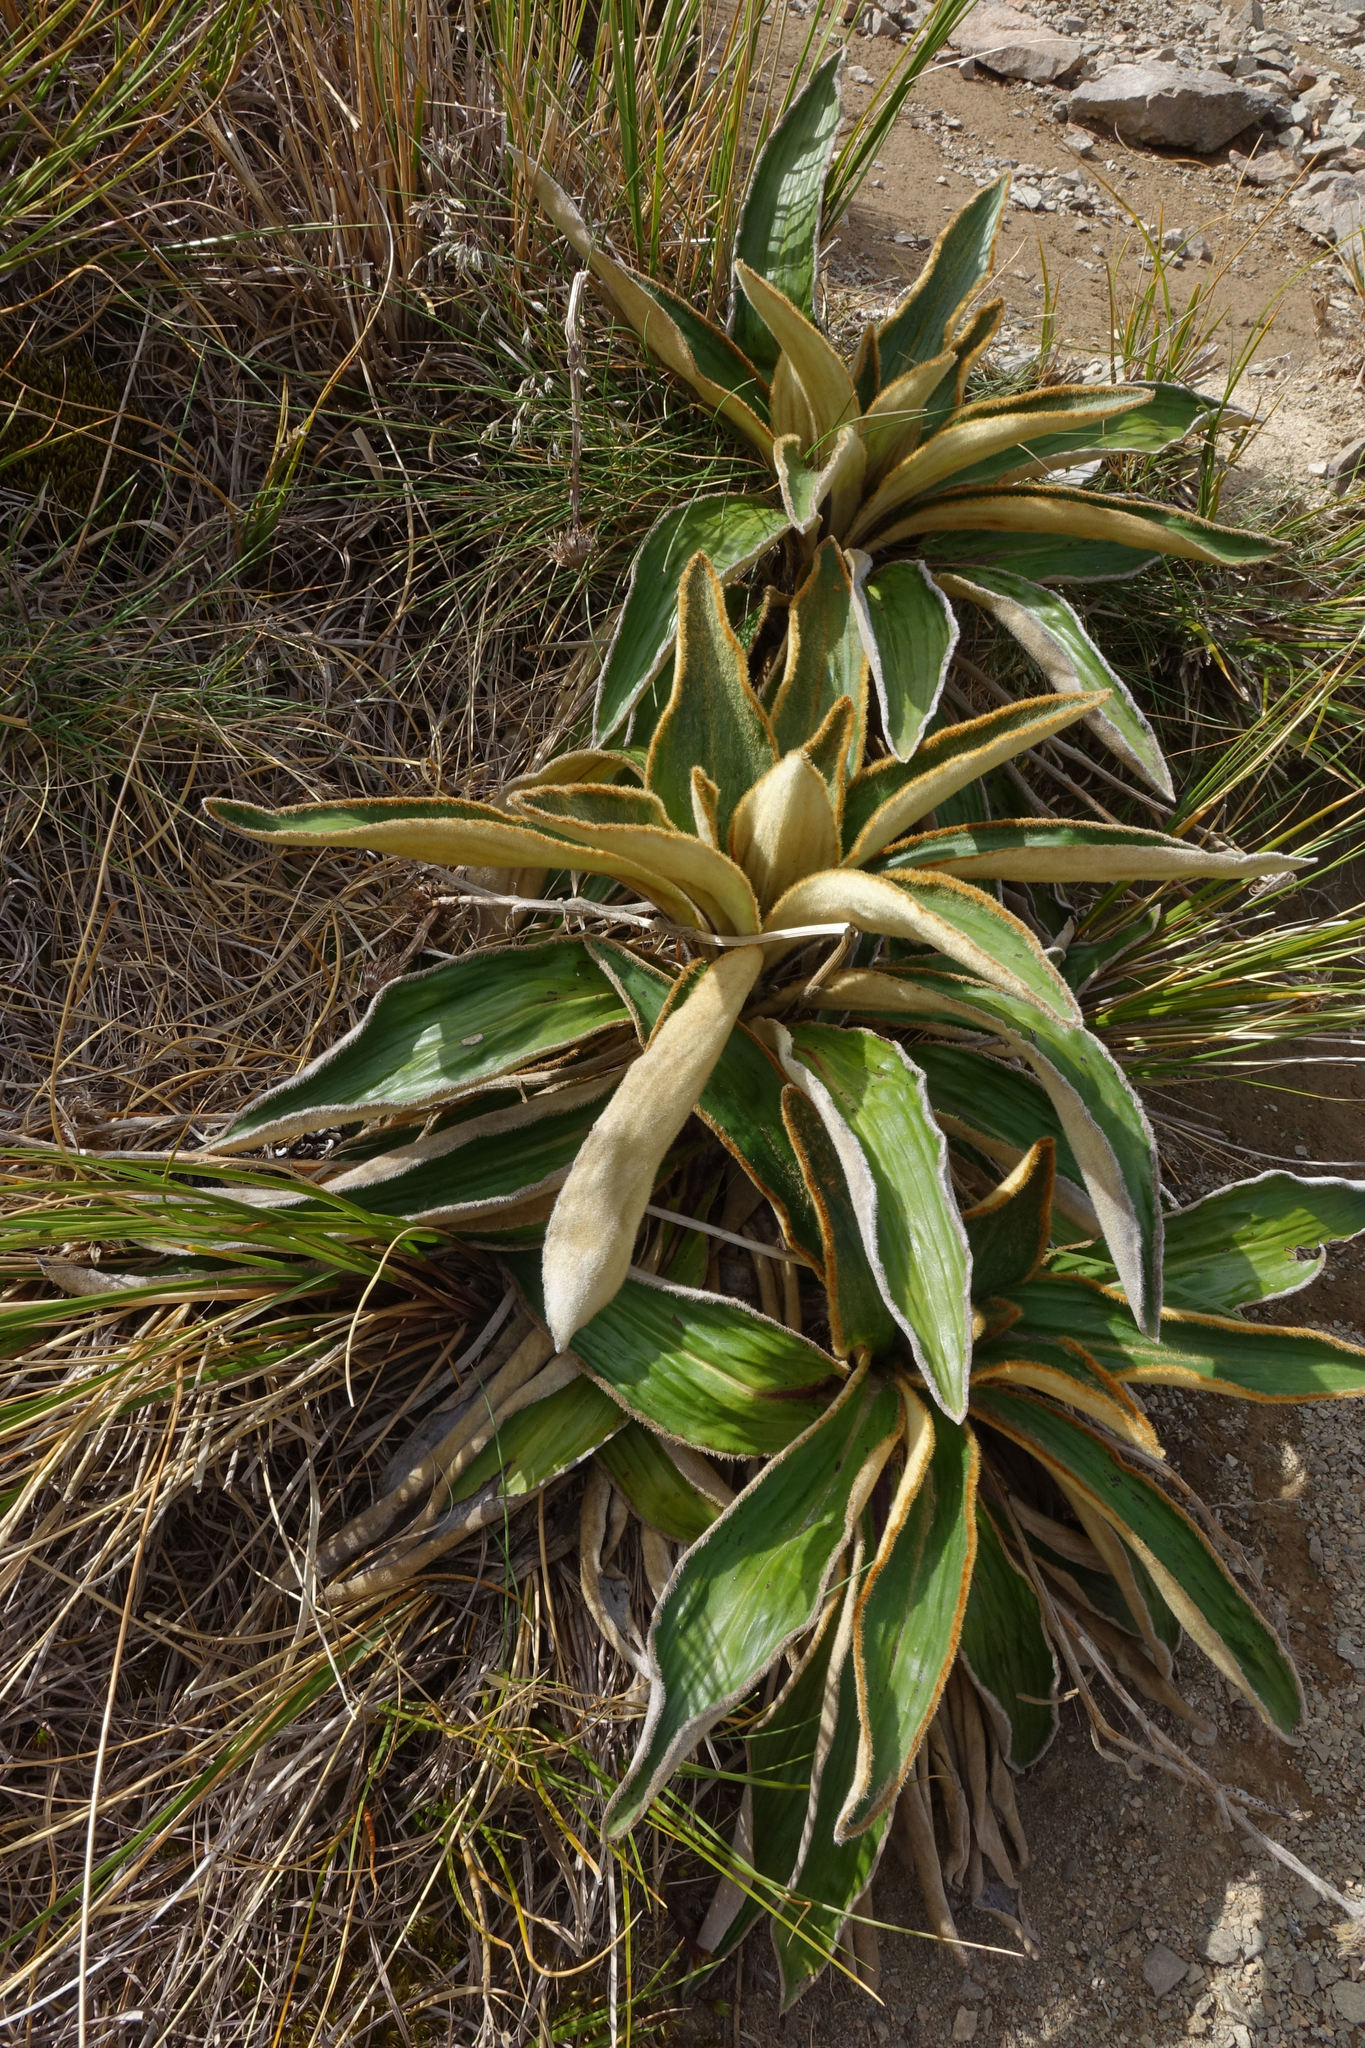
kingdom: Plantae
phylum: Tracheophyta
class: Magnoliopsida
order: Asterales
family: Asteraceae
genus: Celmisia
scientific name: Celmisia traversii
